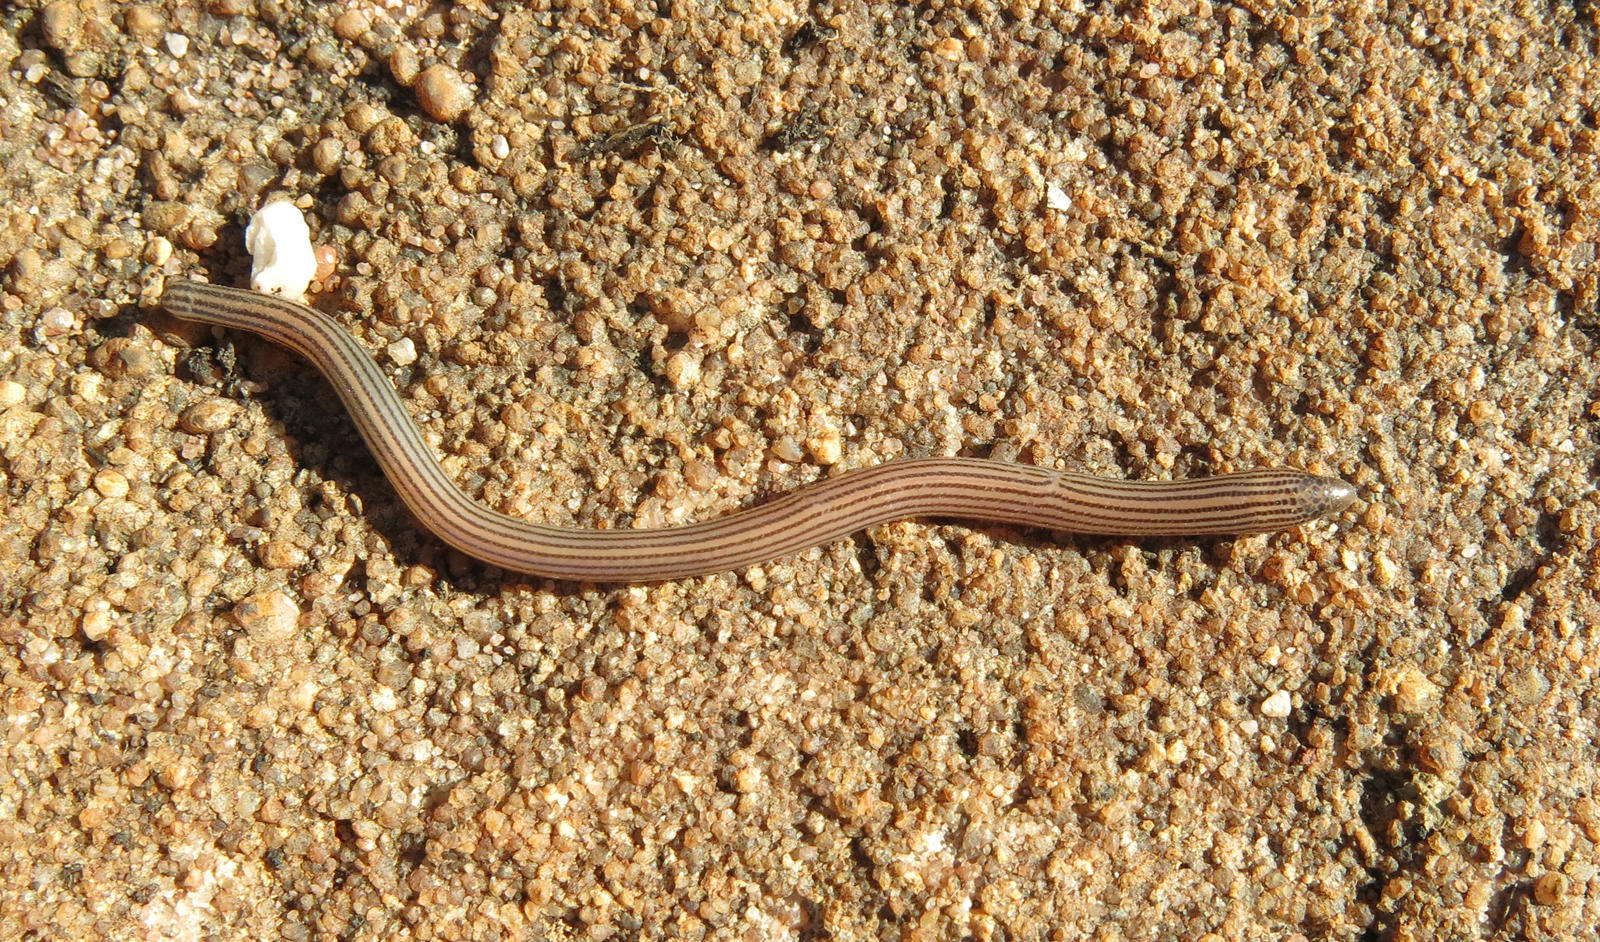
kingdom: Animalia
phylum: Chordata
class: Squamata
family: Scincidae
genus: Acontias
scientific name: Acontias cregoi
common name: Cregoi's blind legless skink
